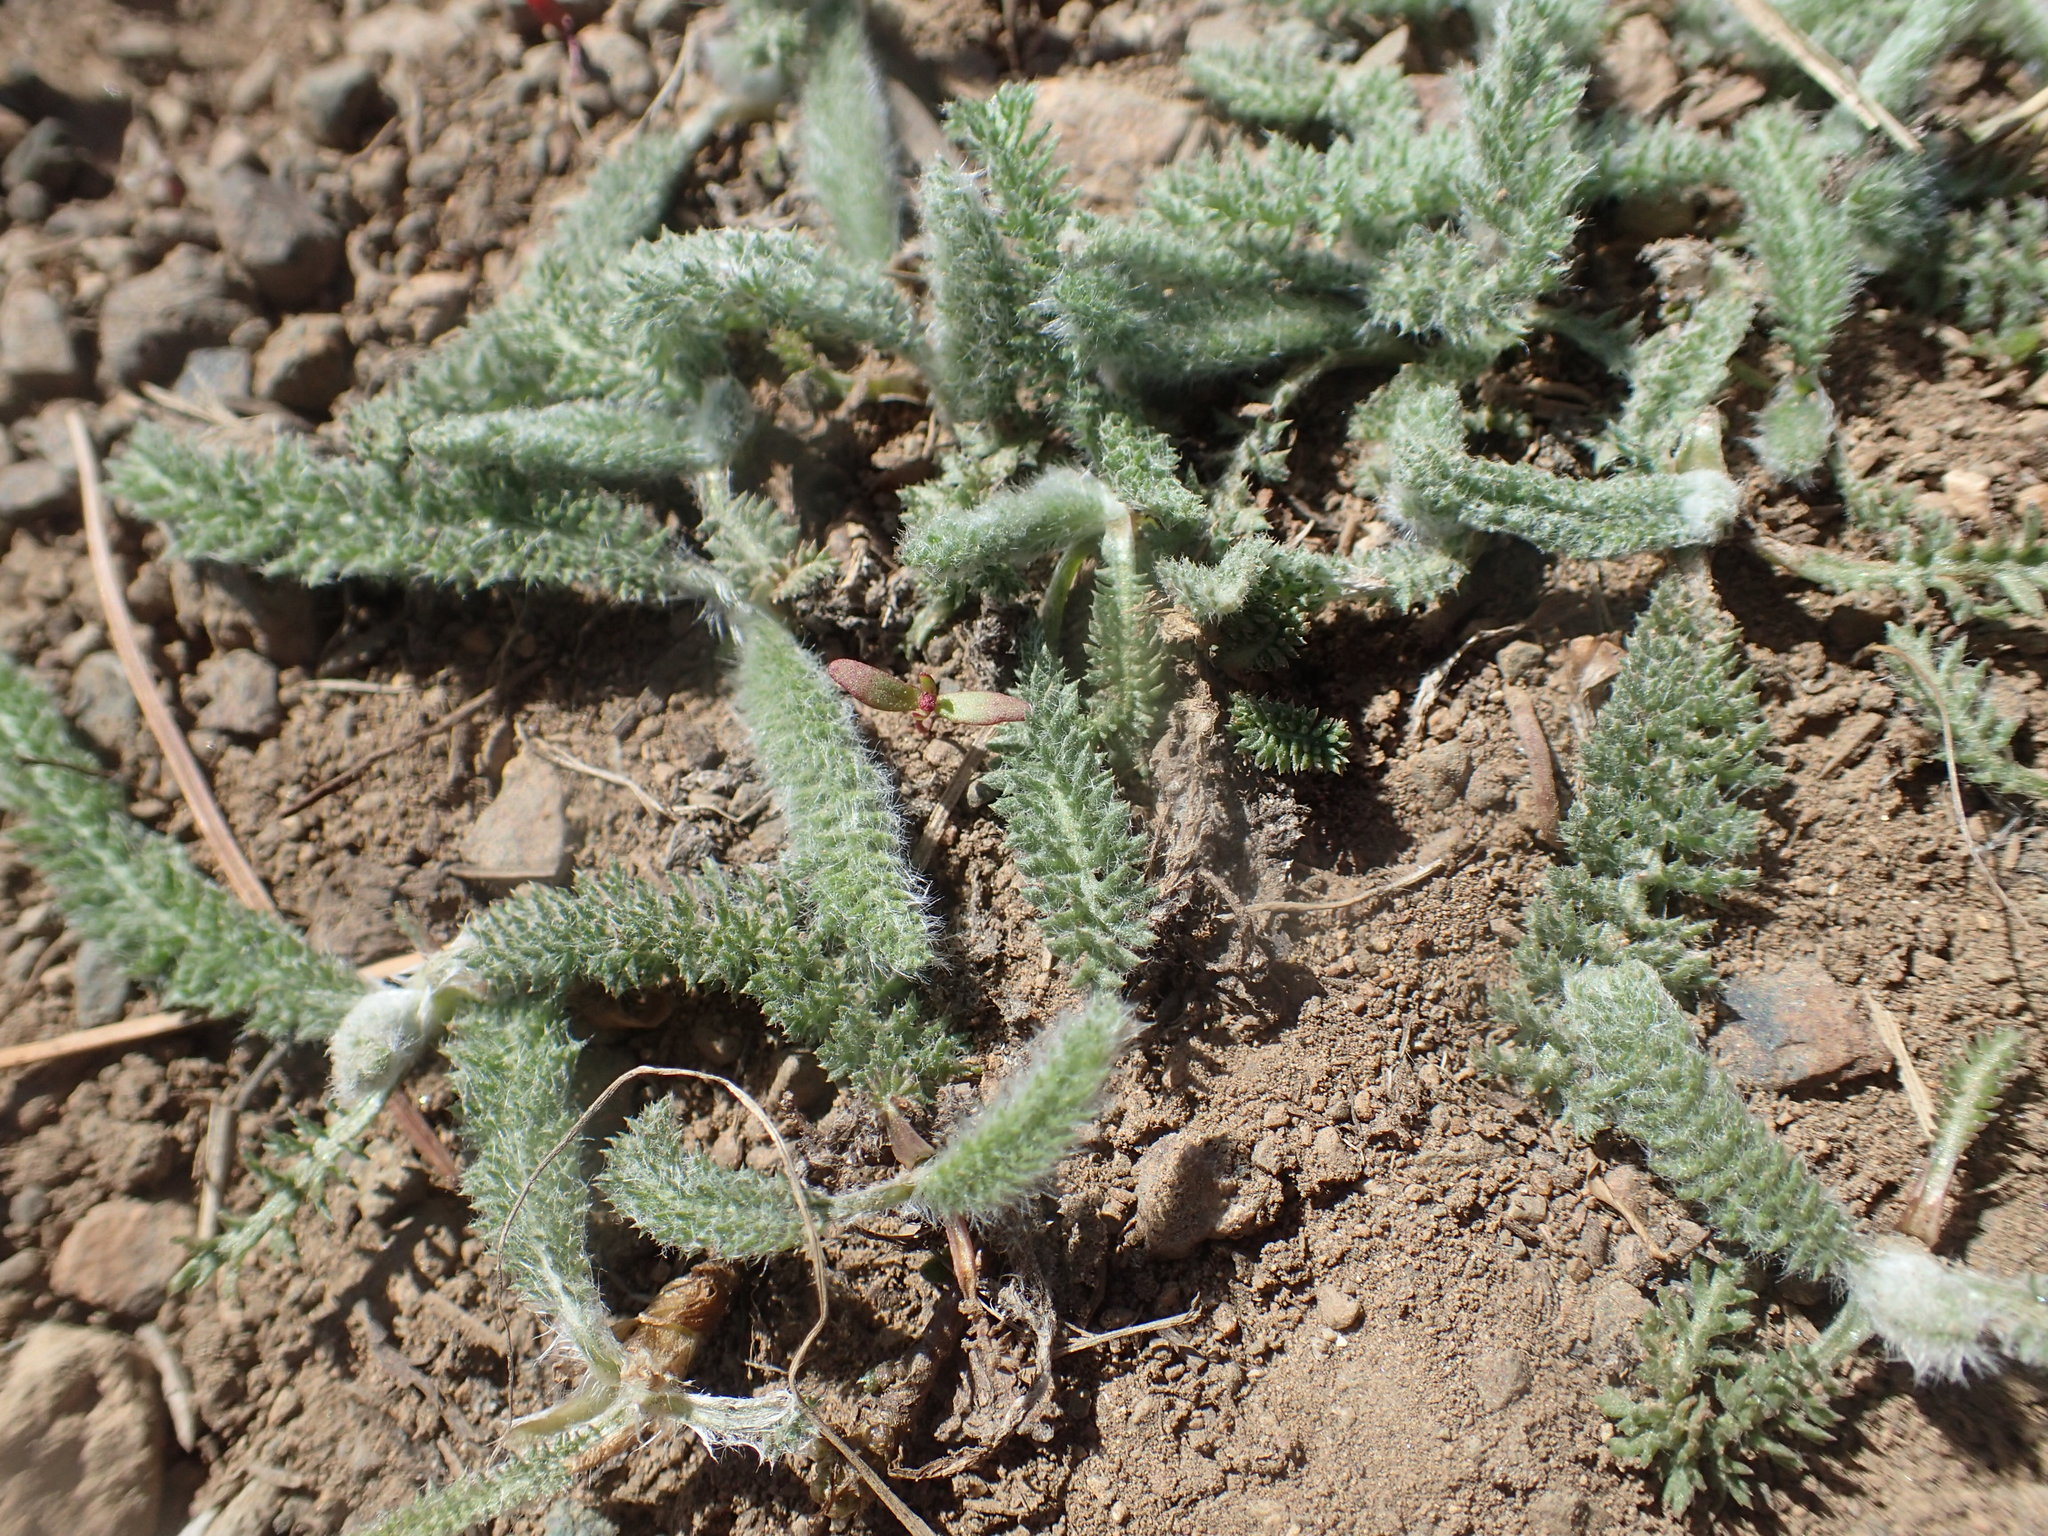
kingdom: Plantae
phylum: Tracheophyta
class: Magnoliopsida
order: Asterales
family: Asteraceae
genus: Achillea
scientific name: Achillea millefolium
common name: Yarrow
